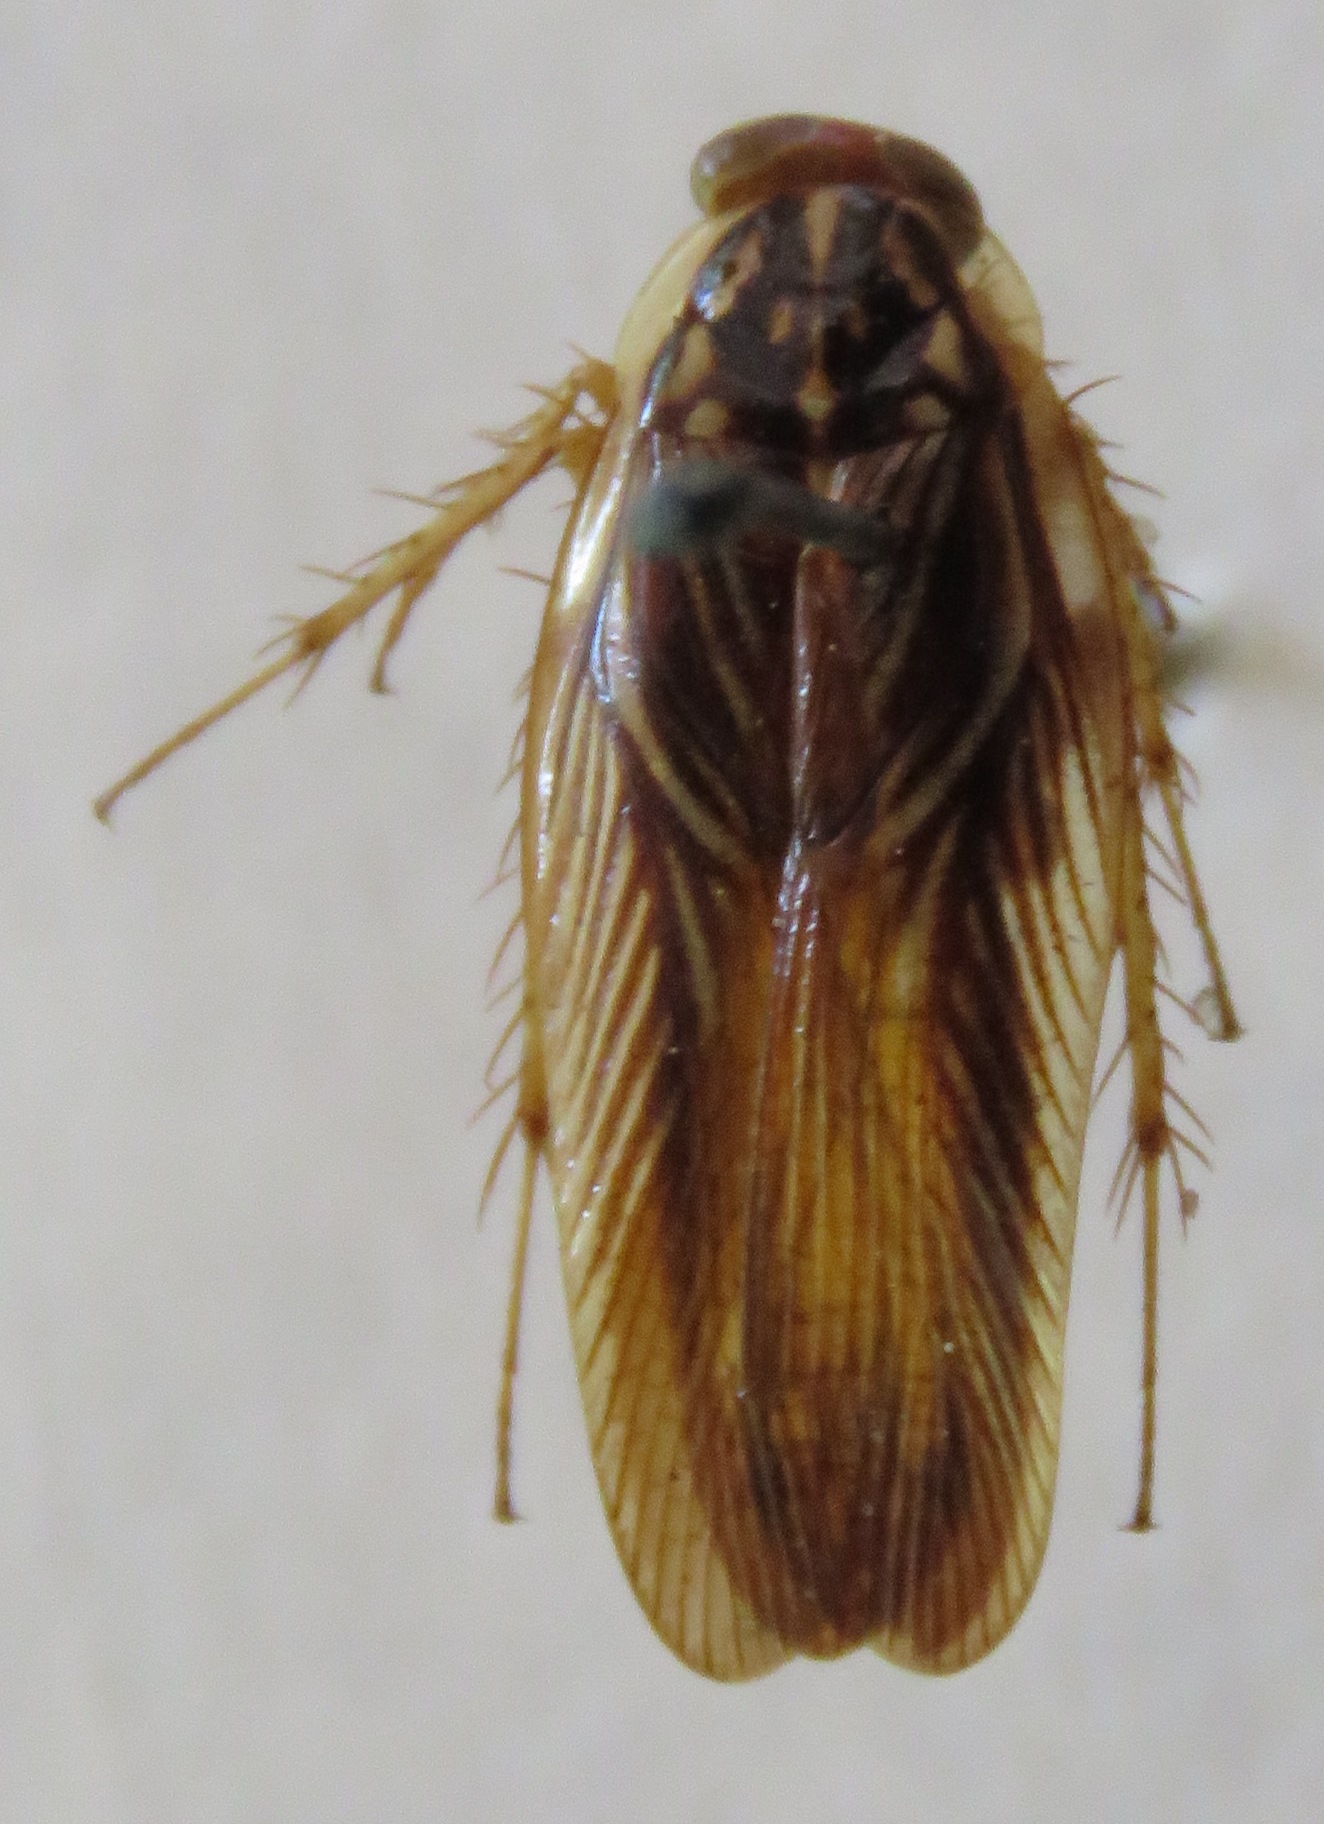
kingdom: Animalia
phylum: Arthropoda
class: Insecta
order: Blattodea
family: Ectobiidae
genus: Euphyllodromia
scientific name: Euphyllodromia angustata
